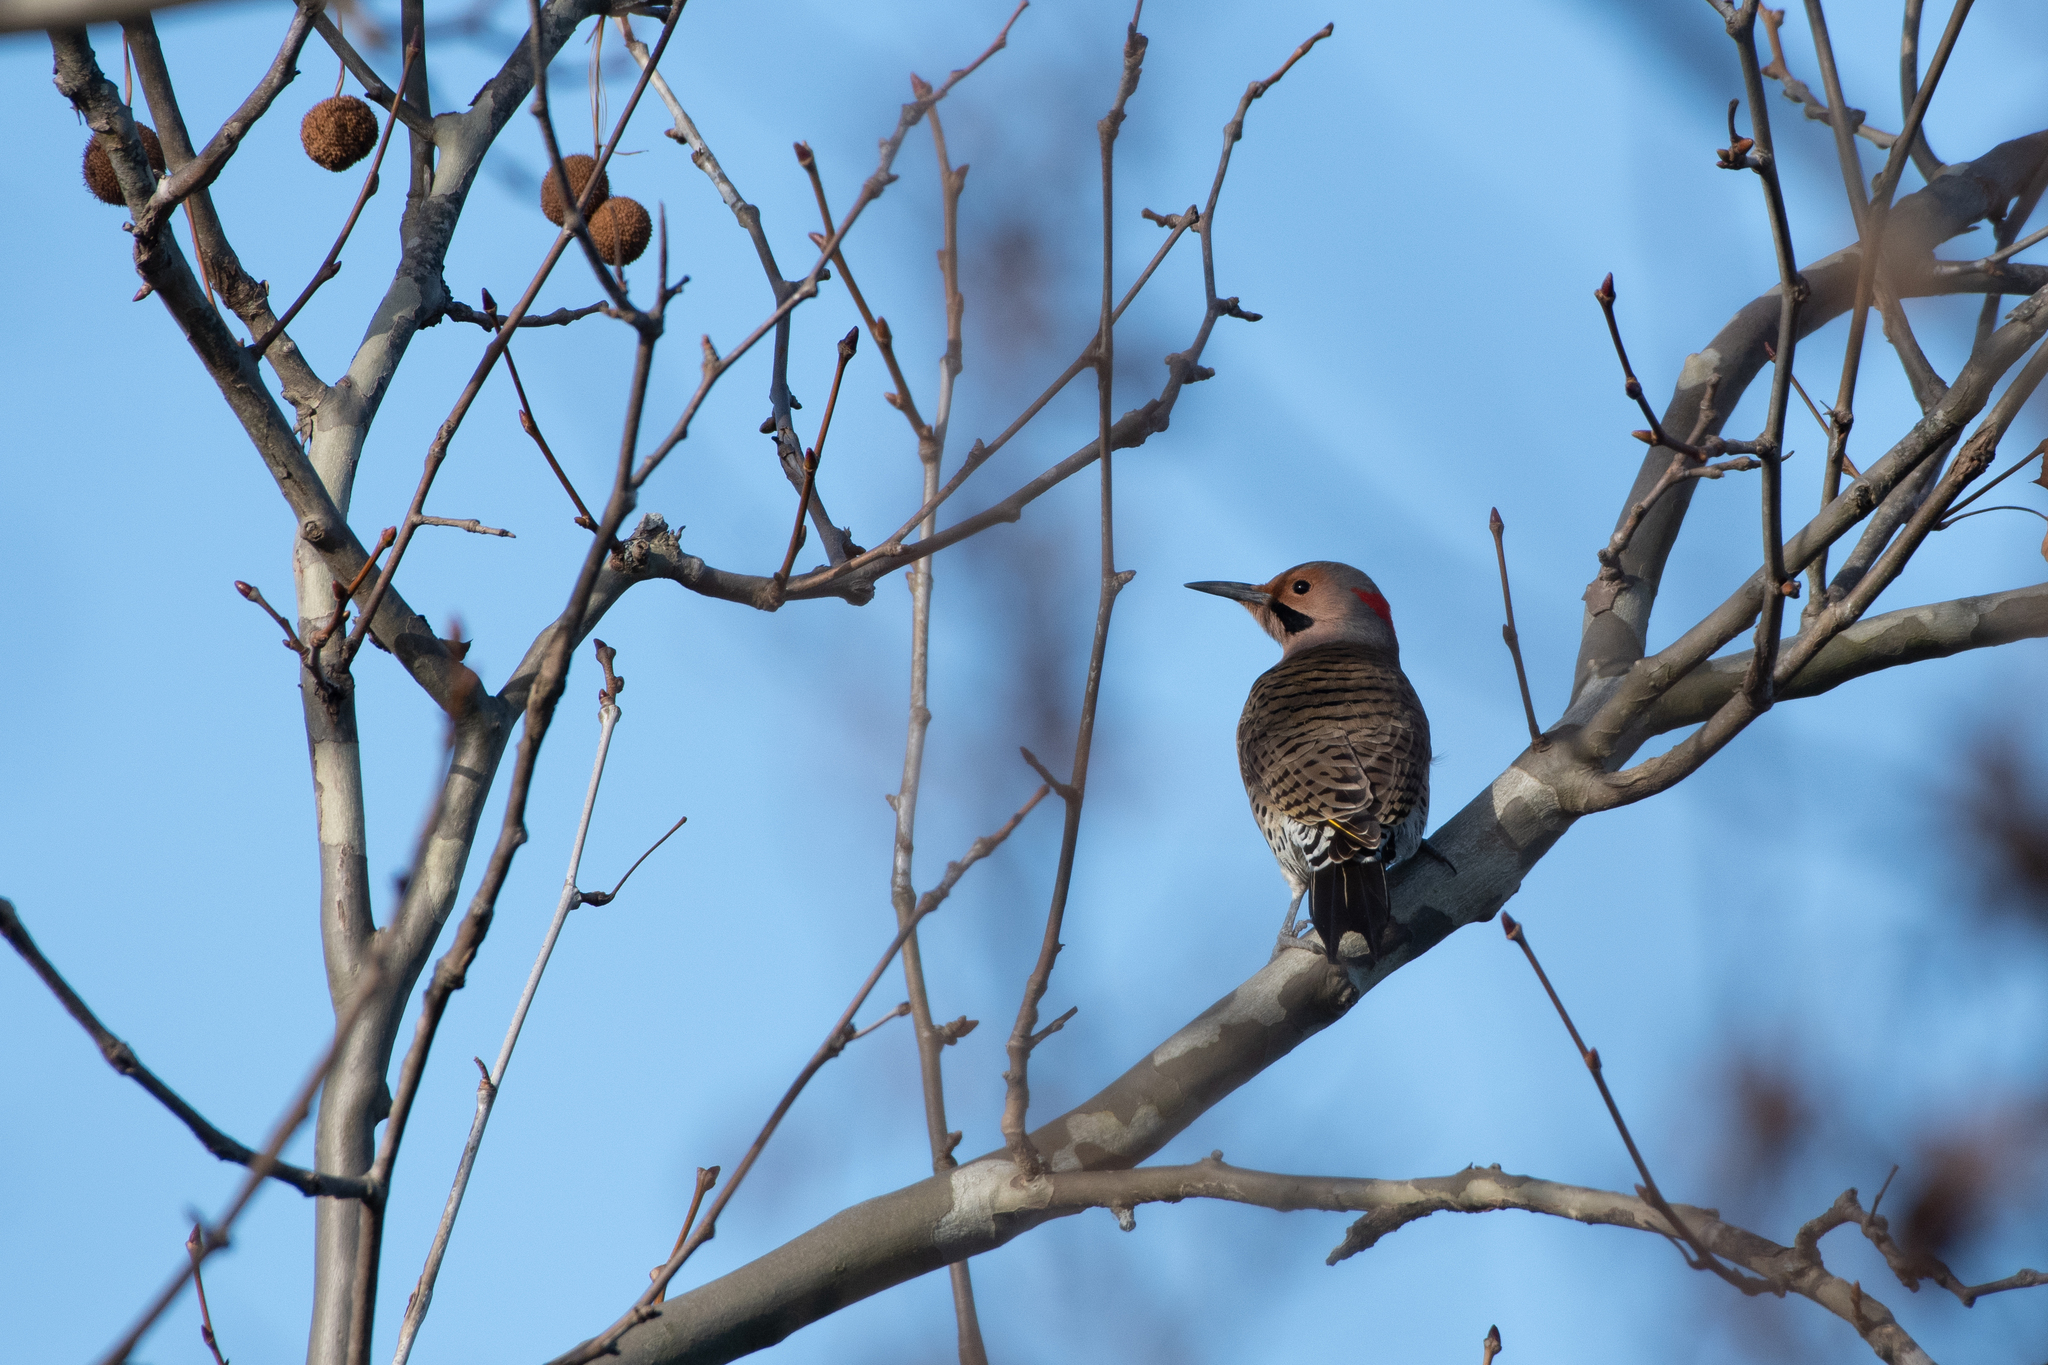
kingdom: Animalia
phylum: Chordata
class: Aves
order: Piciformes
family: Picidae
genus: Colaptes
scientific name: Colaptes auratus
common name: Northern flicker
